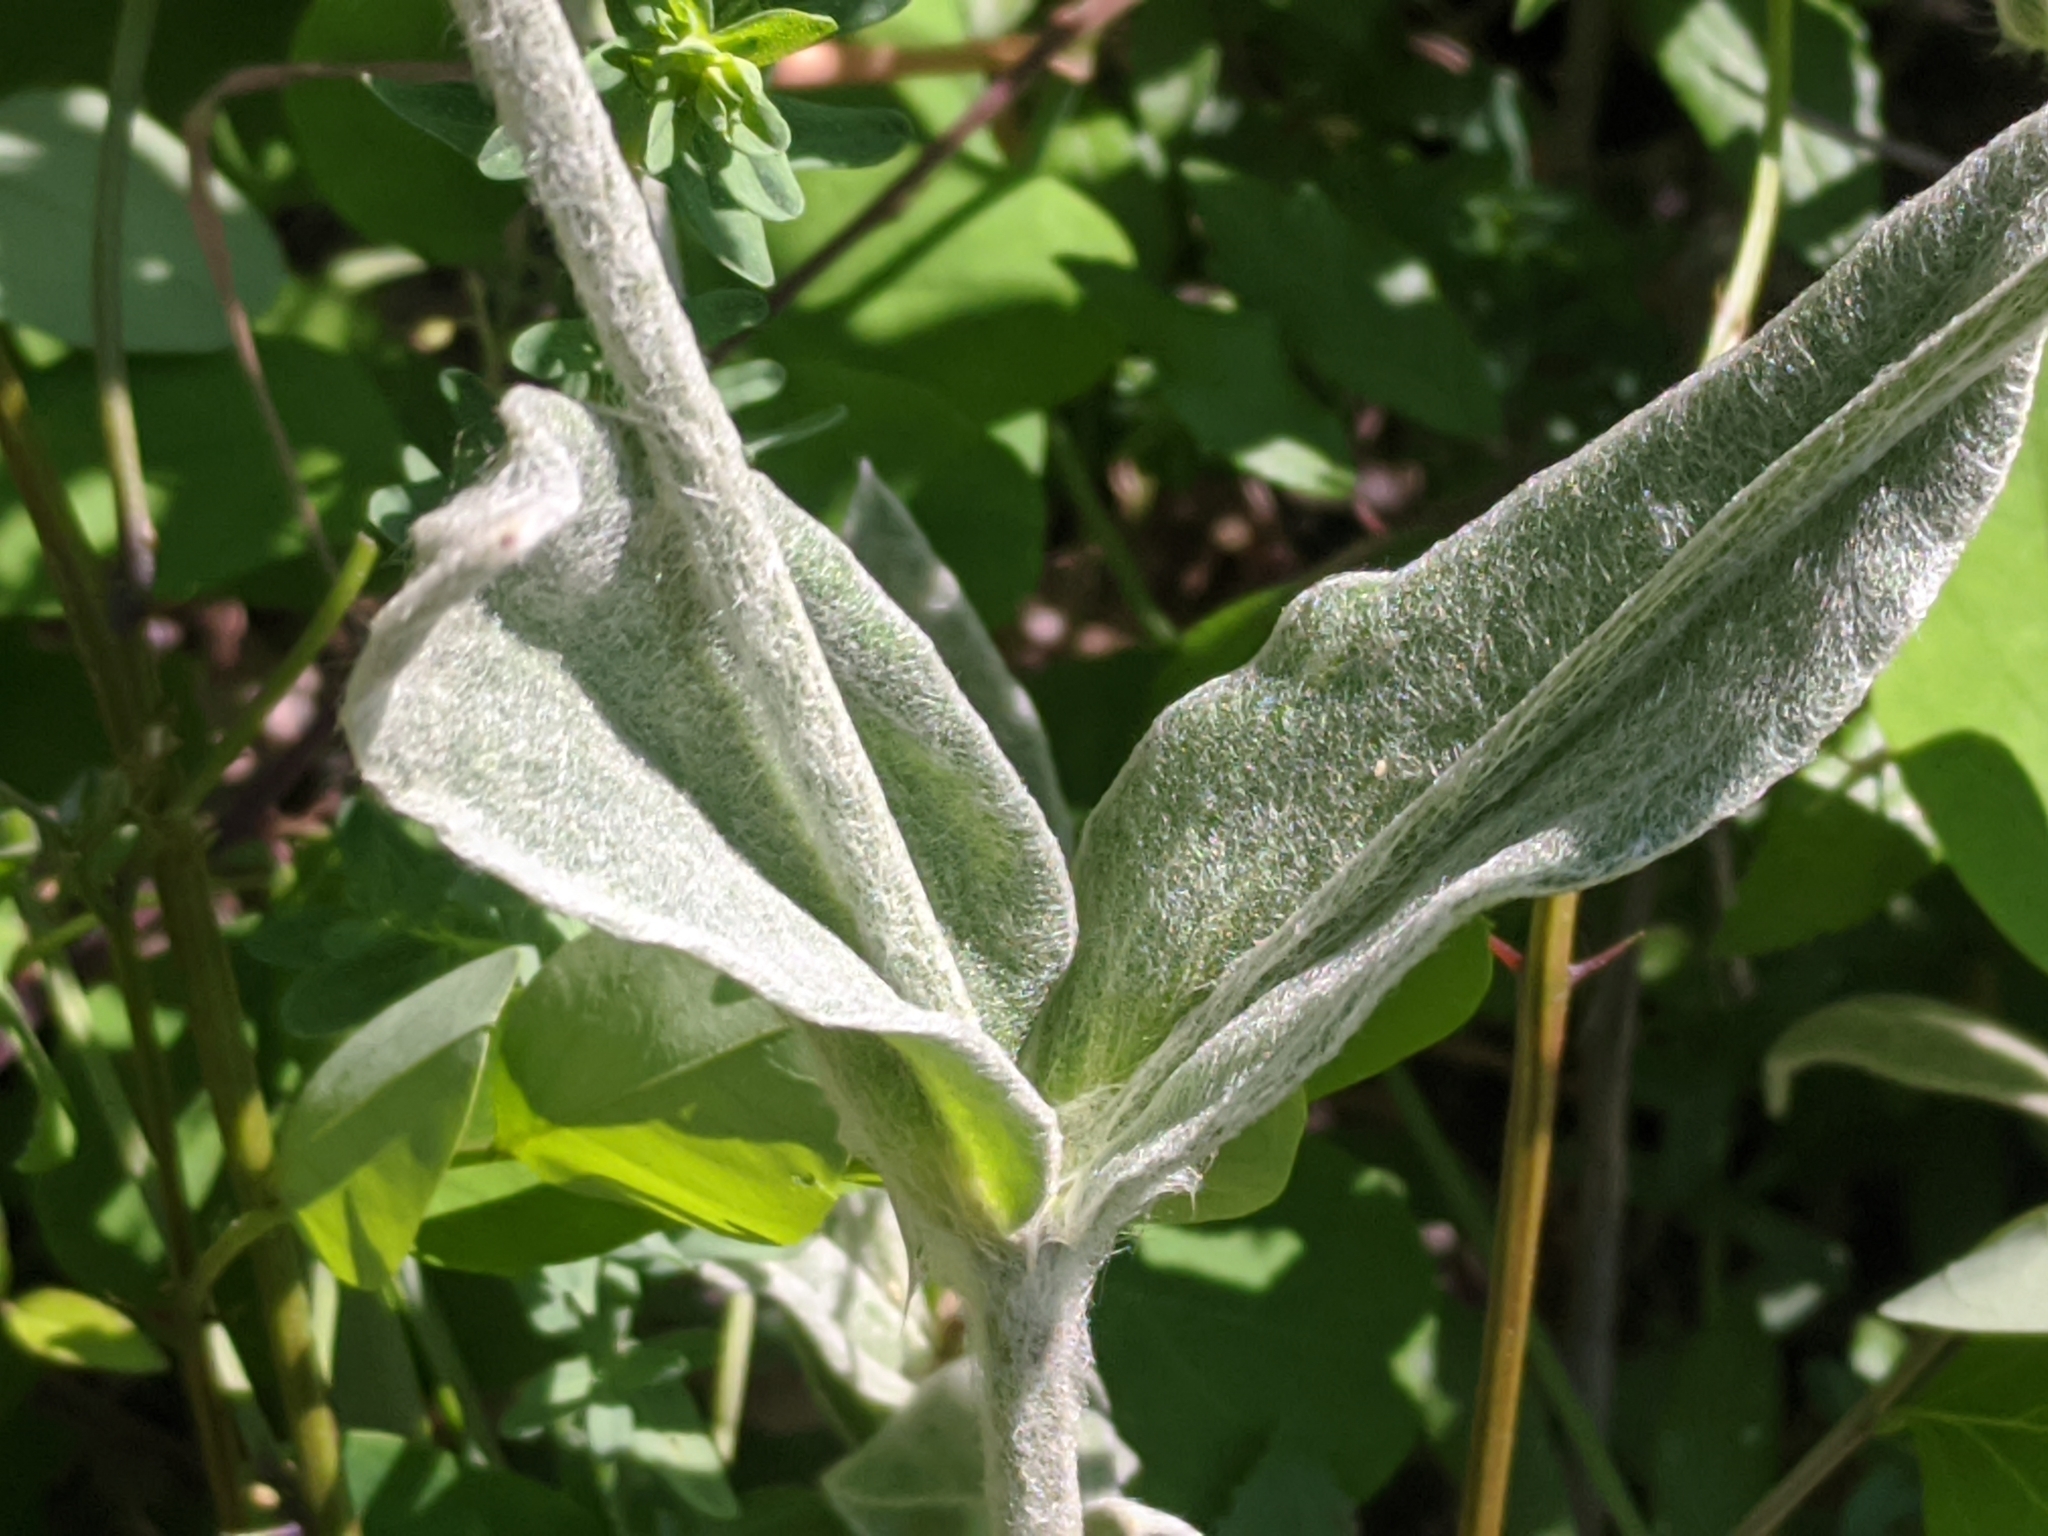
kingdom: Plantae
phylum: Tracheophyta
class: Magnoliopsida
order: Caryophyllales
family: Caryophyllaceae
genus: Silene
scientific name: Silene coronaria
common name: Rose campion
